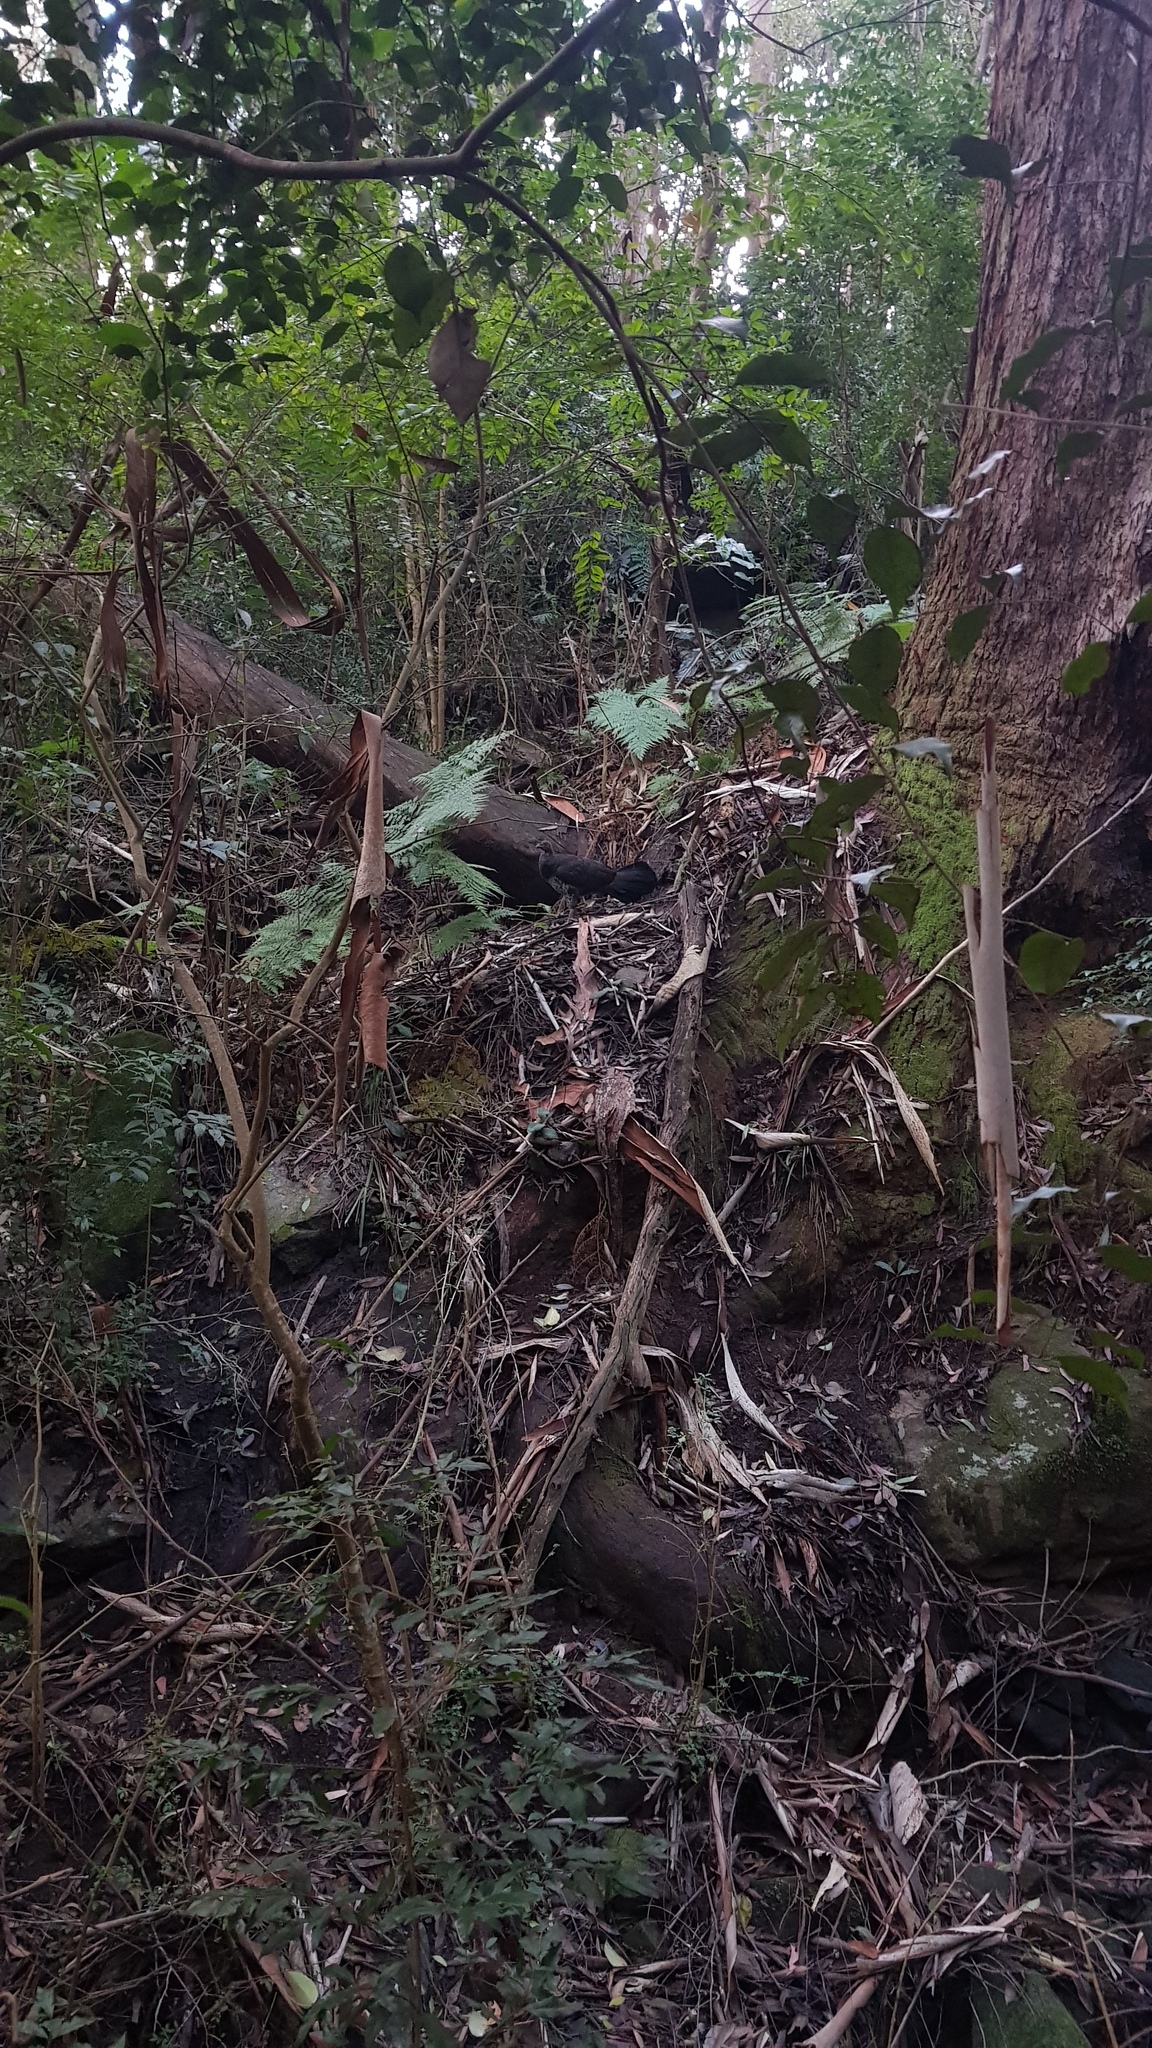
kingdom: Animalia
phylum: Chordata
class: Aves
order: Galliformes
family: Megapodiidae
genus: Alectura
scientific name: Alectura lathami
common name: Australian brushturkey
